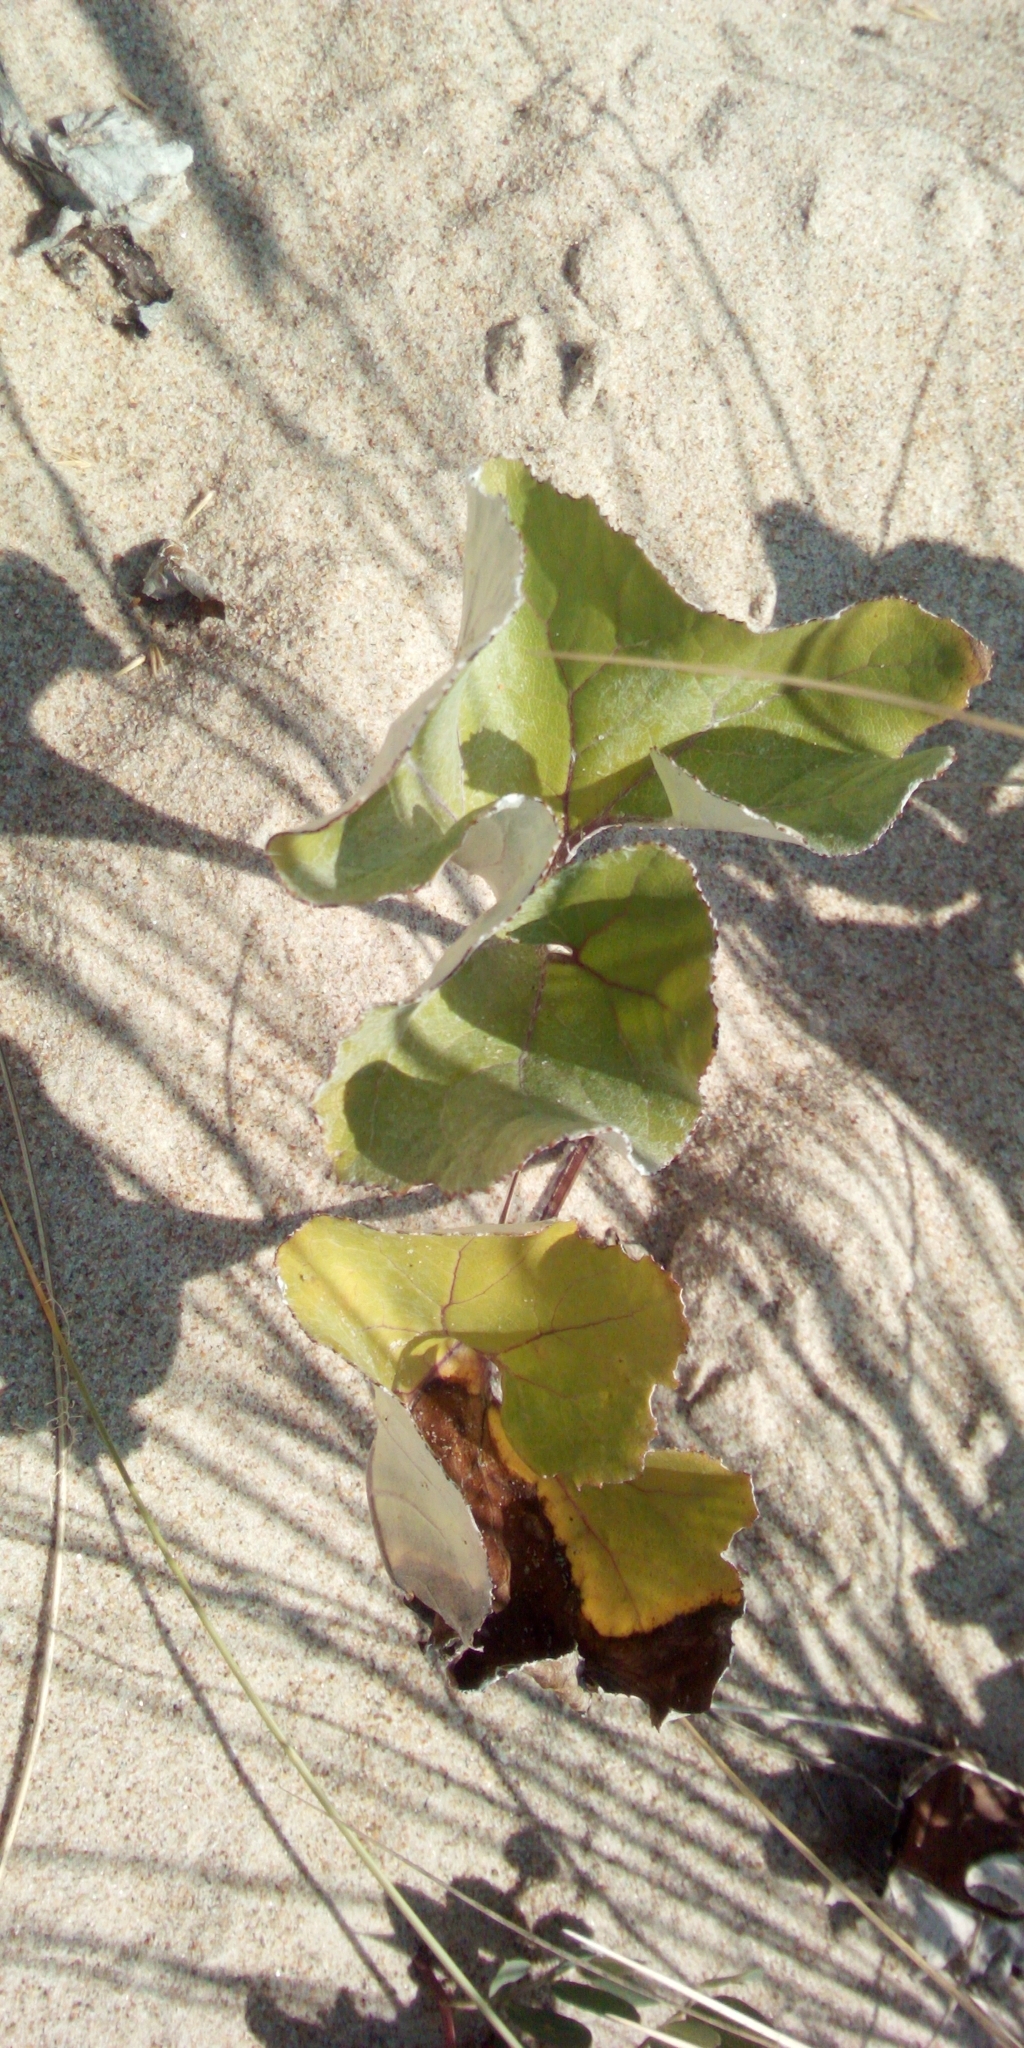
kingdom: Plantae
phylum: Tracheophyta
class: Magnoliopsida
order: Asterales
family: Asteraceae
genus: Petasites
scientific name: Petasites spurius
